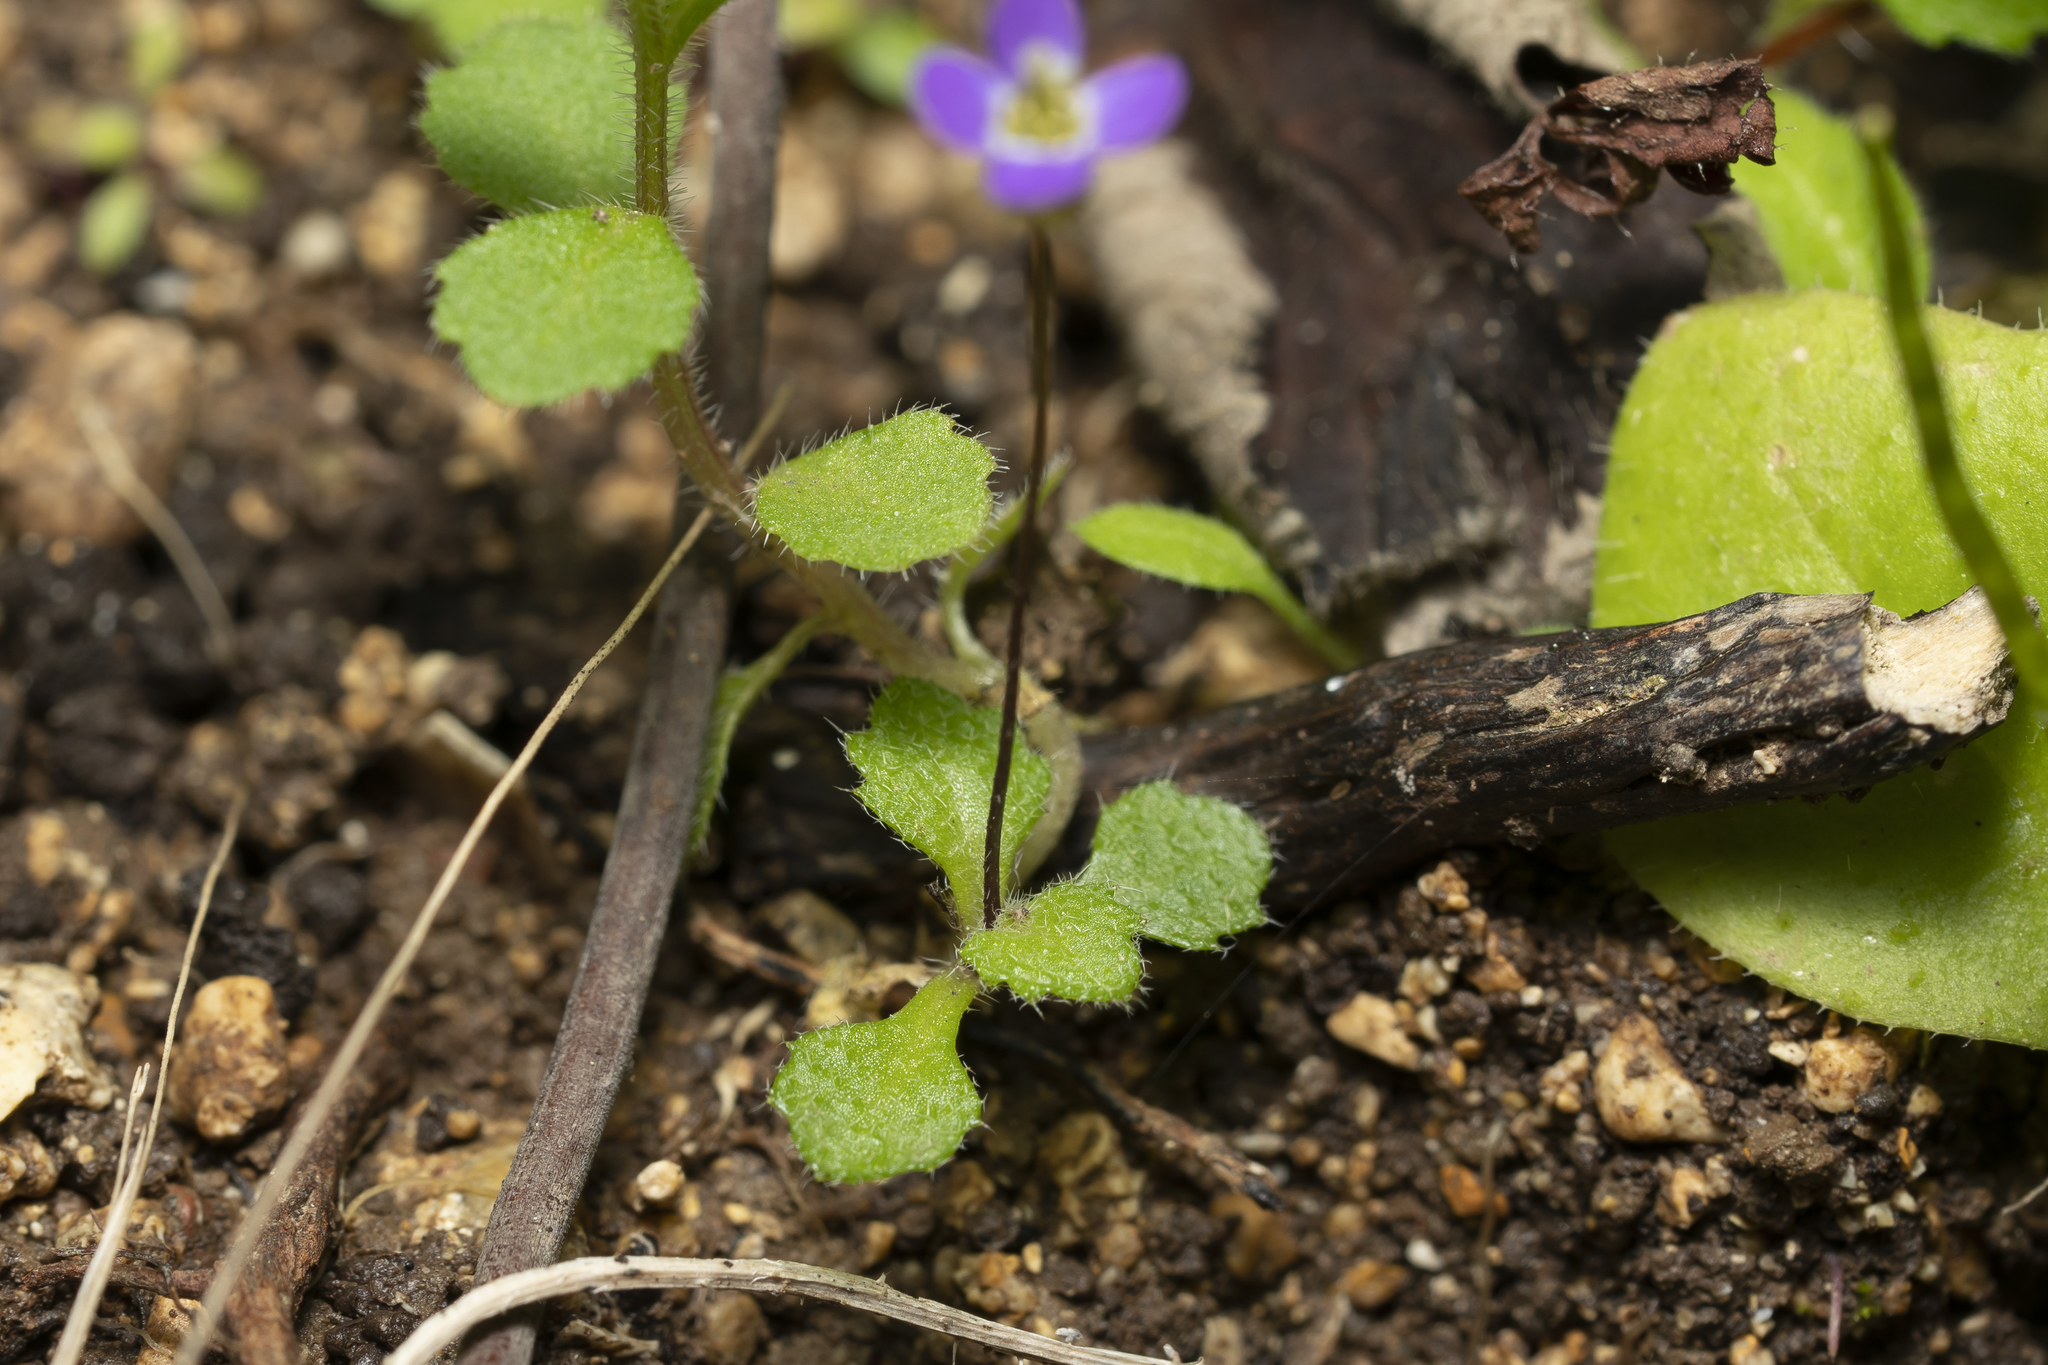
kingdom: Plantae
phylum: Tracheophyta
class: Magnoliopsida
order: Brassicales
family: Brassicaceae
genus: Arabis
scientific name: Arabis verna
